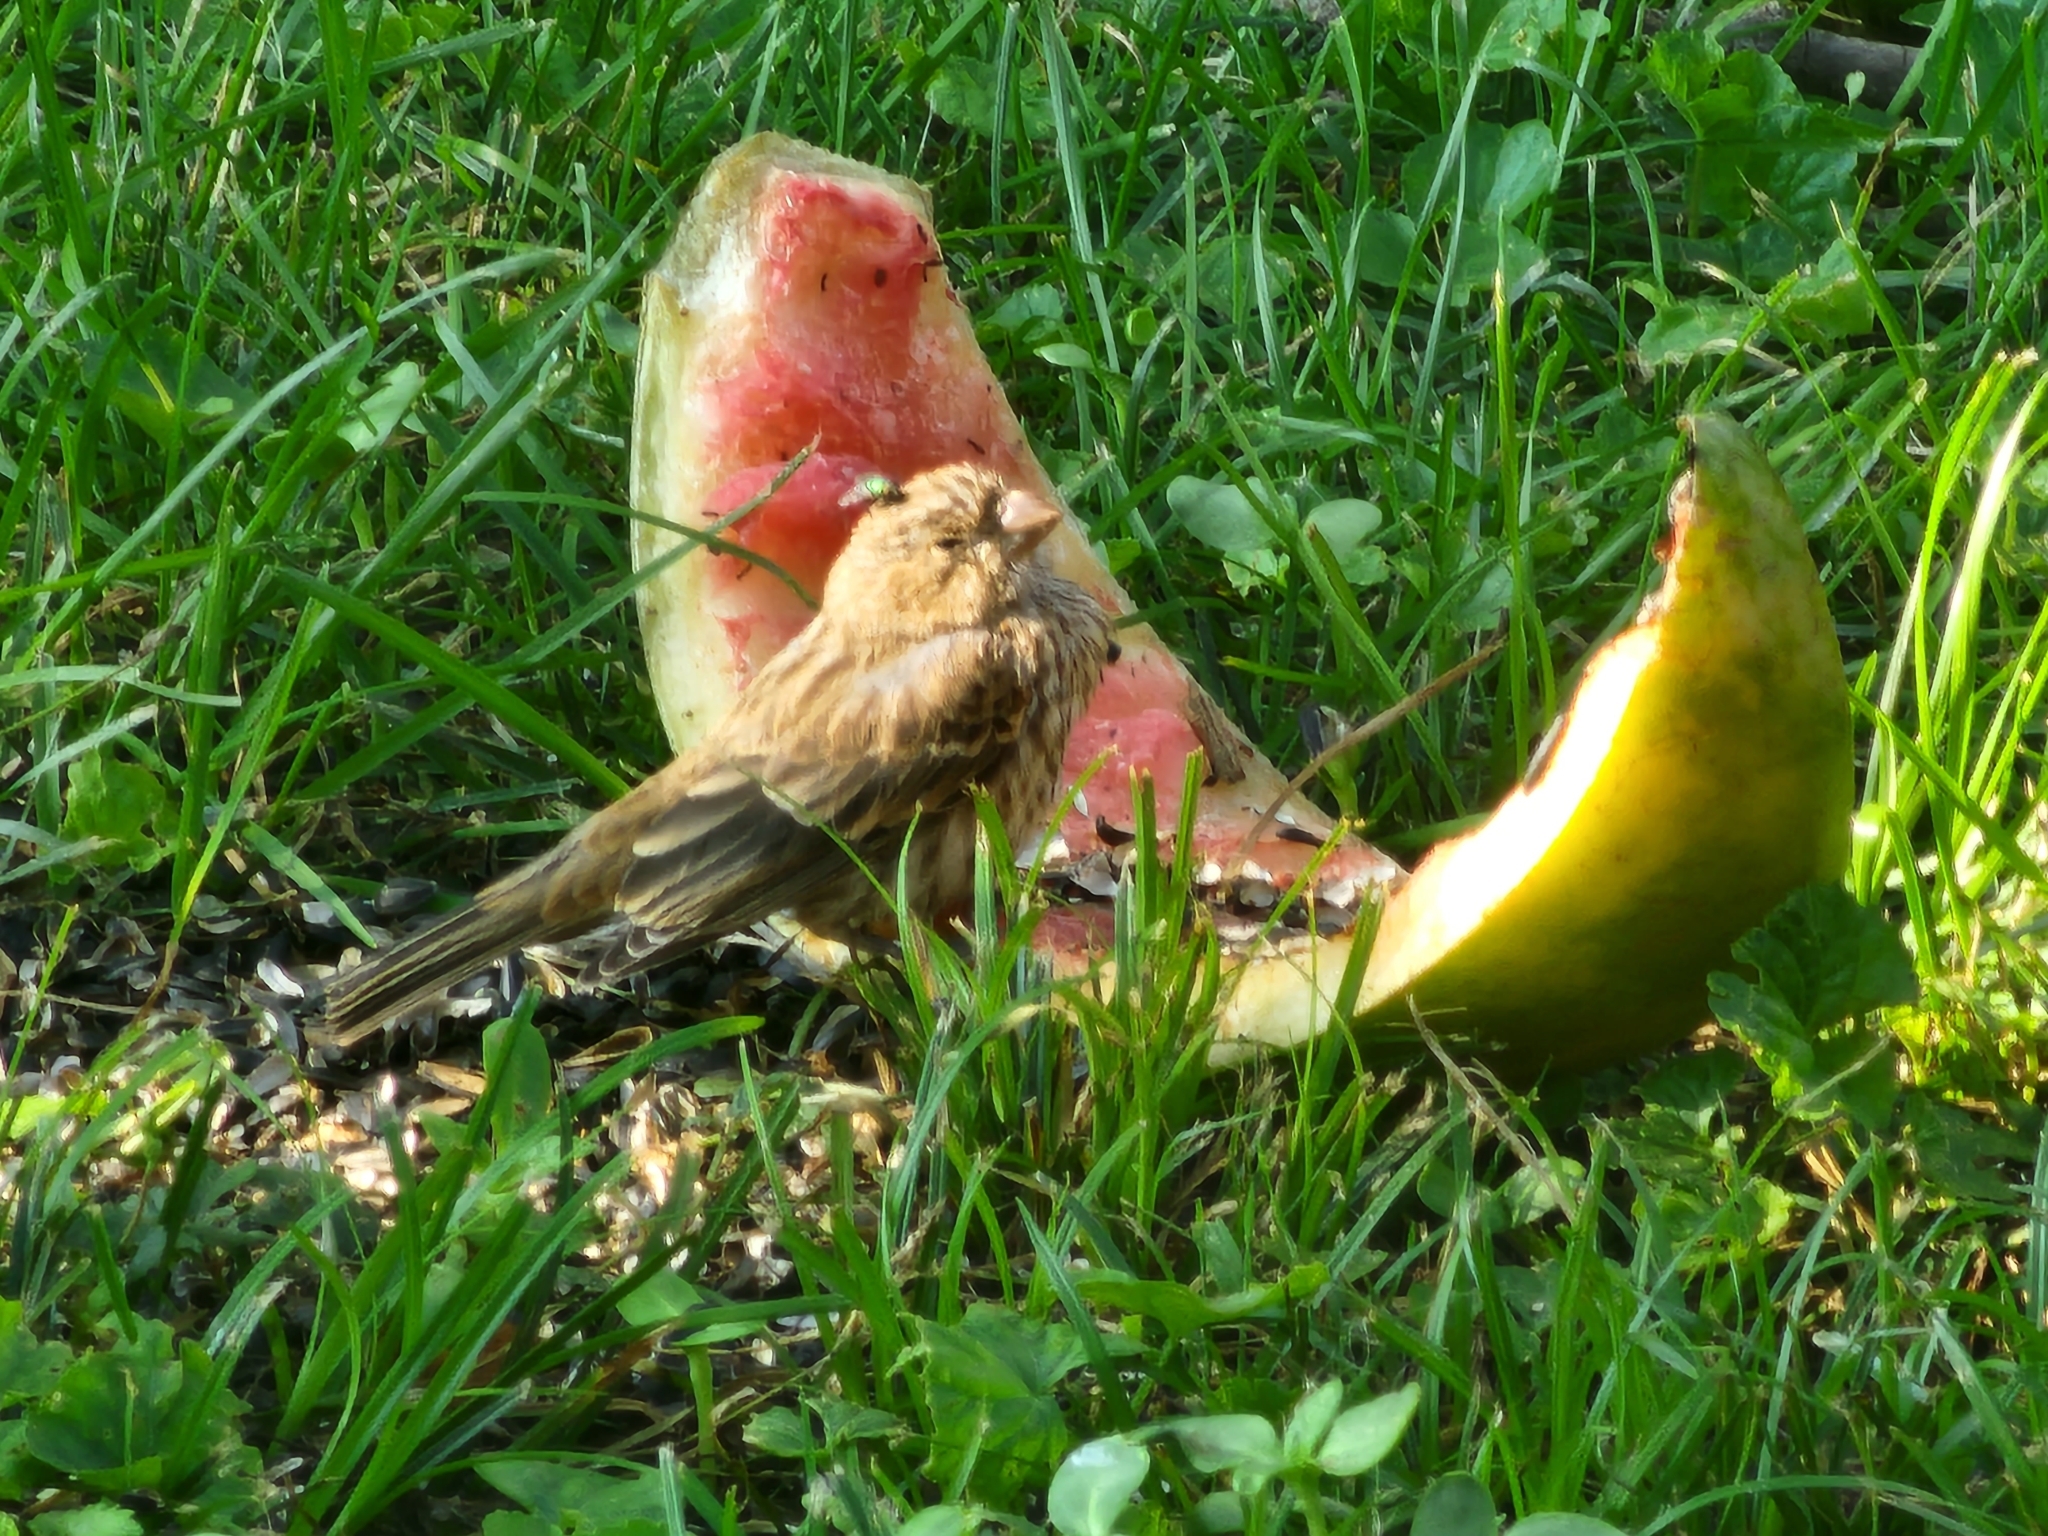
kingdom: Animalia
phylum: Chordata
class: Aves
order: Passeriformes
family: Fringillidae
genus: Haemorhous
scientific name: Haemorhous mexicanus
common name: House finch
